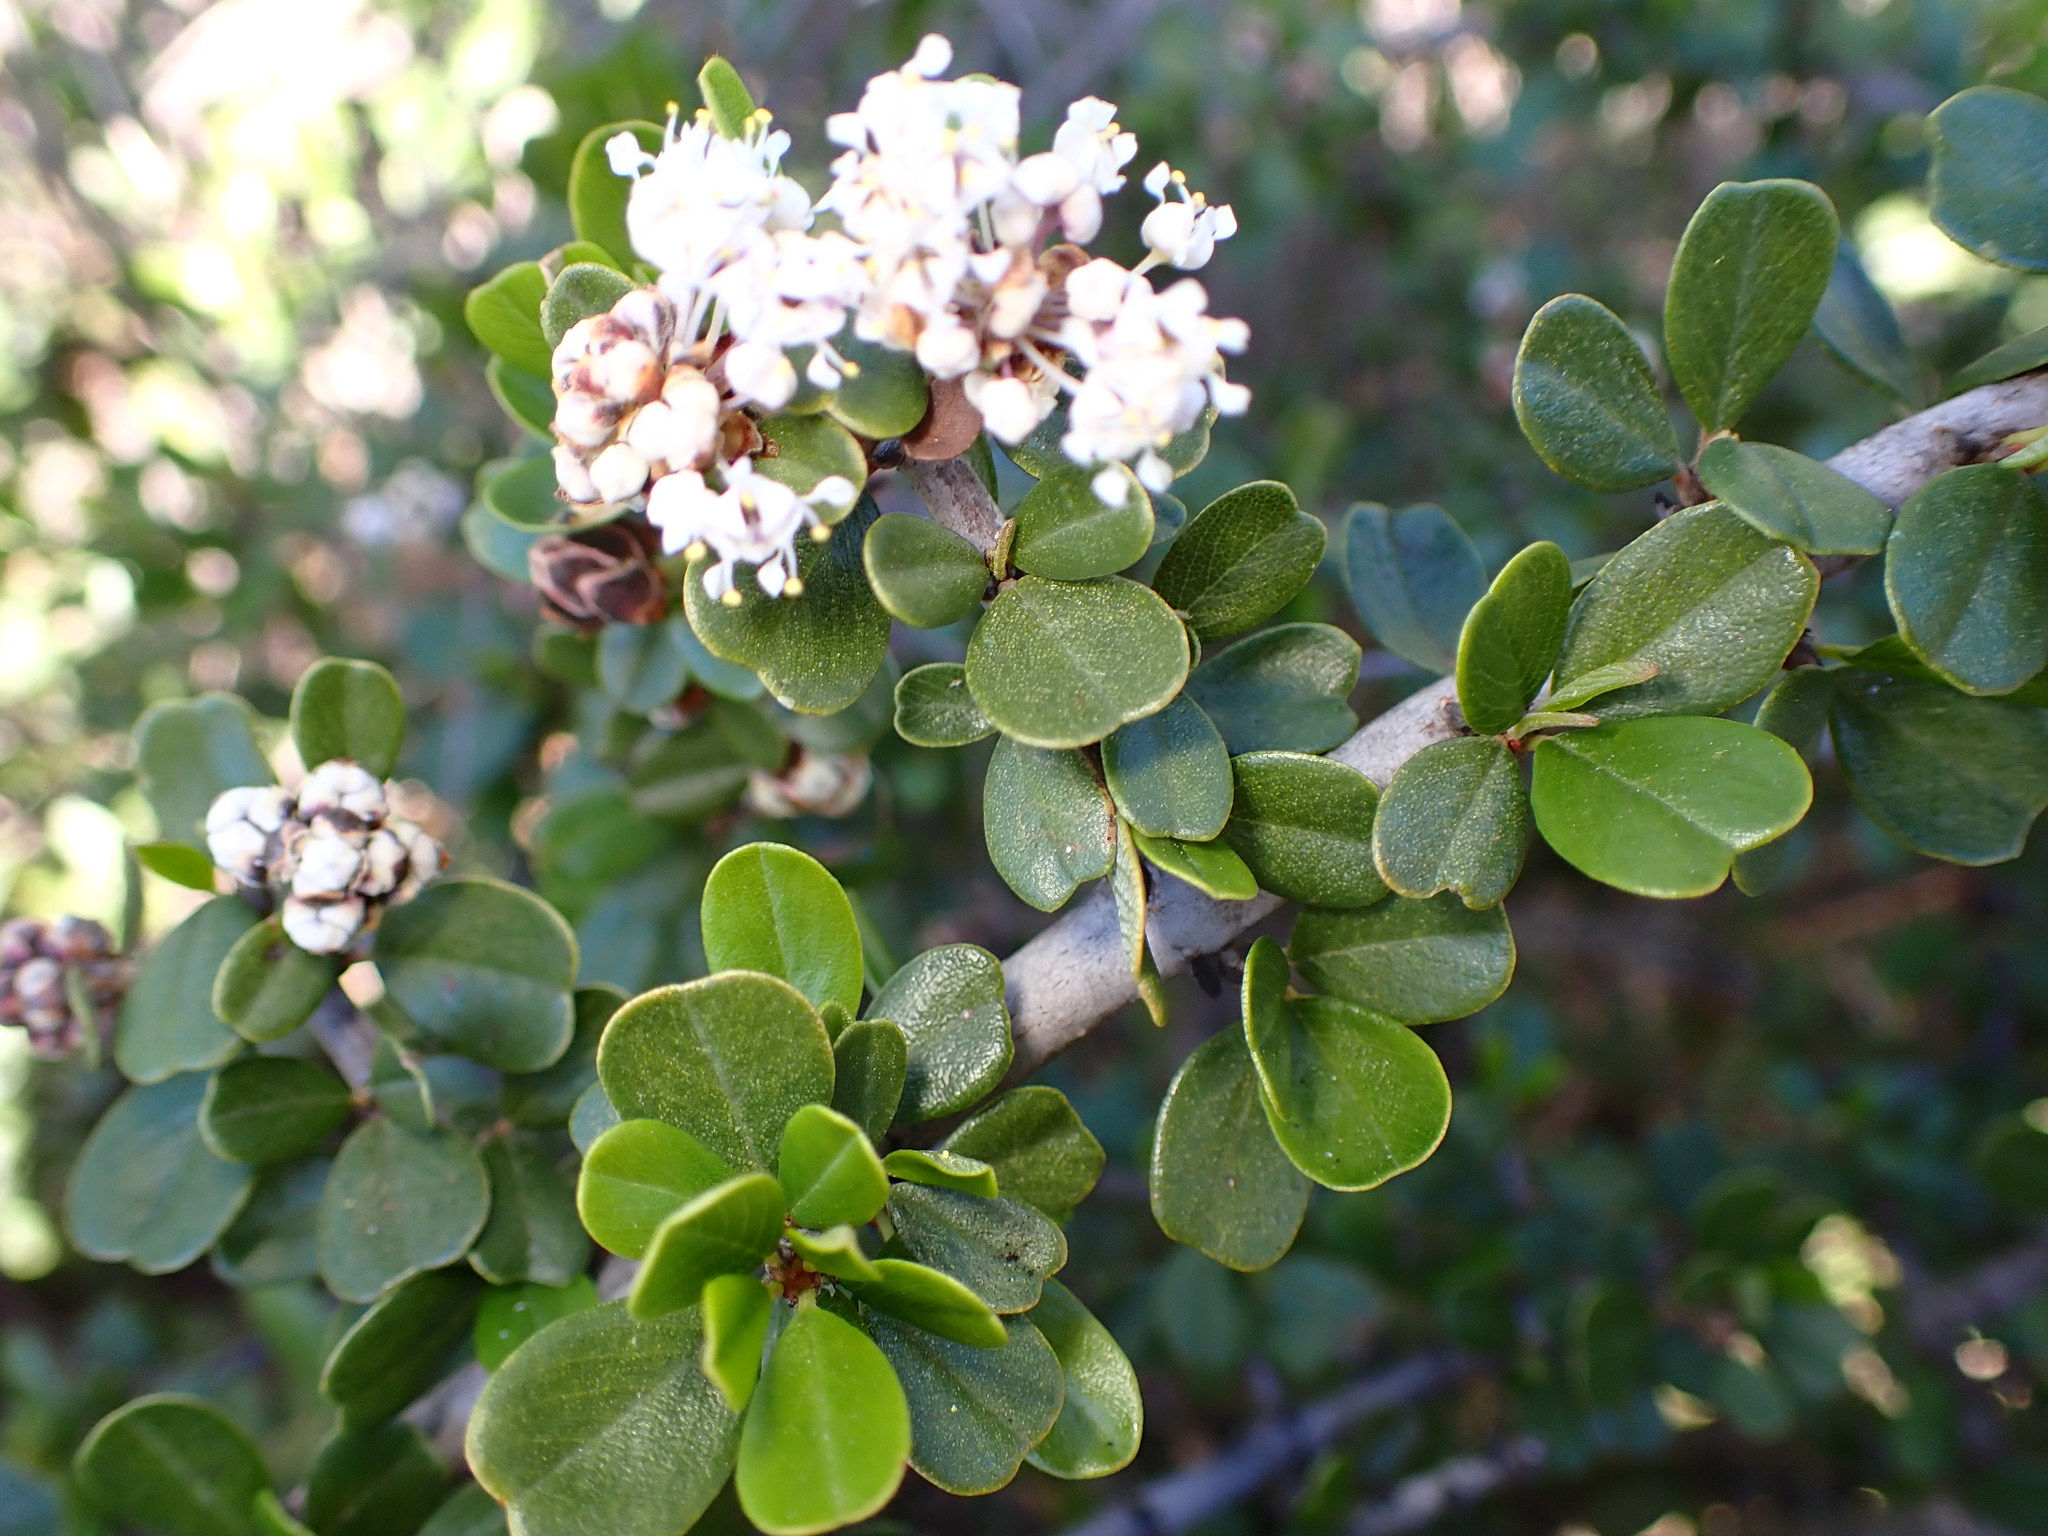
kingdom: Plantae
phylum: Tracheophyta
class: Magnoliopsida
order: Rosales
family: Rhamnaceae
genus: Ceanothus
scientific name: Ceanothus cuneatus
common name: Cuneate ceanothus
